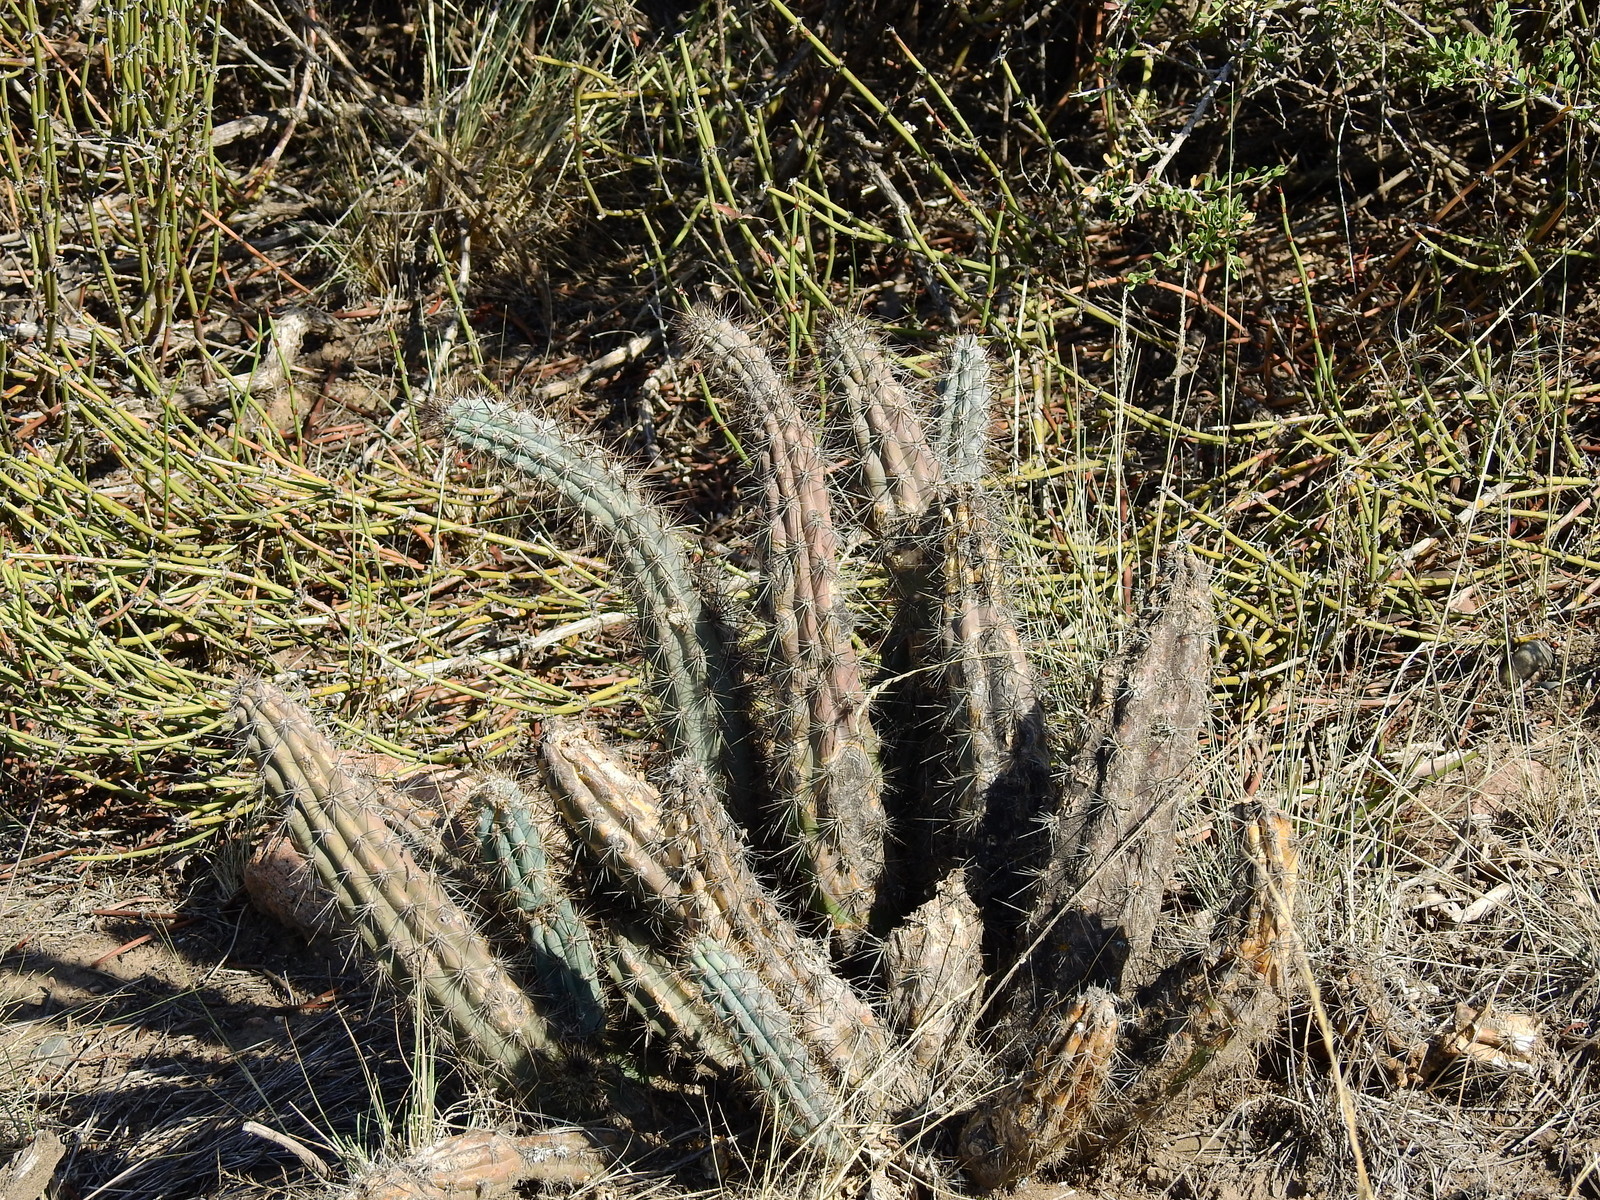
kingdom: Plantae
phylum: Tracheophyta
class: Magnoliopsida
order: Caryophyllales
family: Cactaceae
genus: Cereus
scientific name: Cereus aethiops
